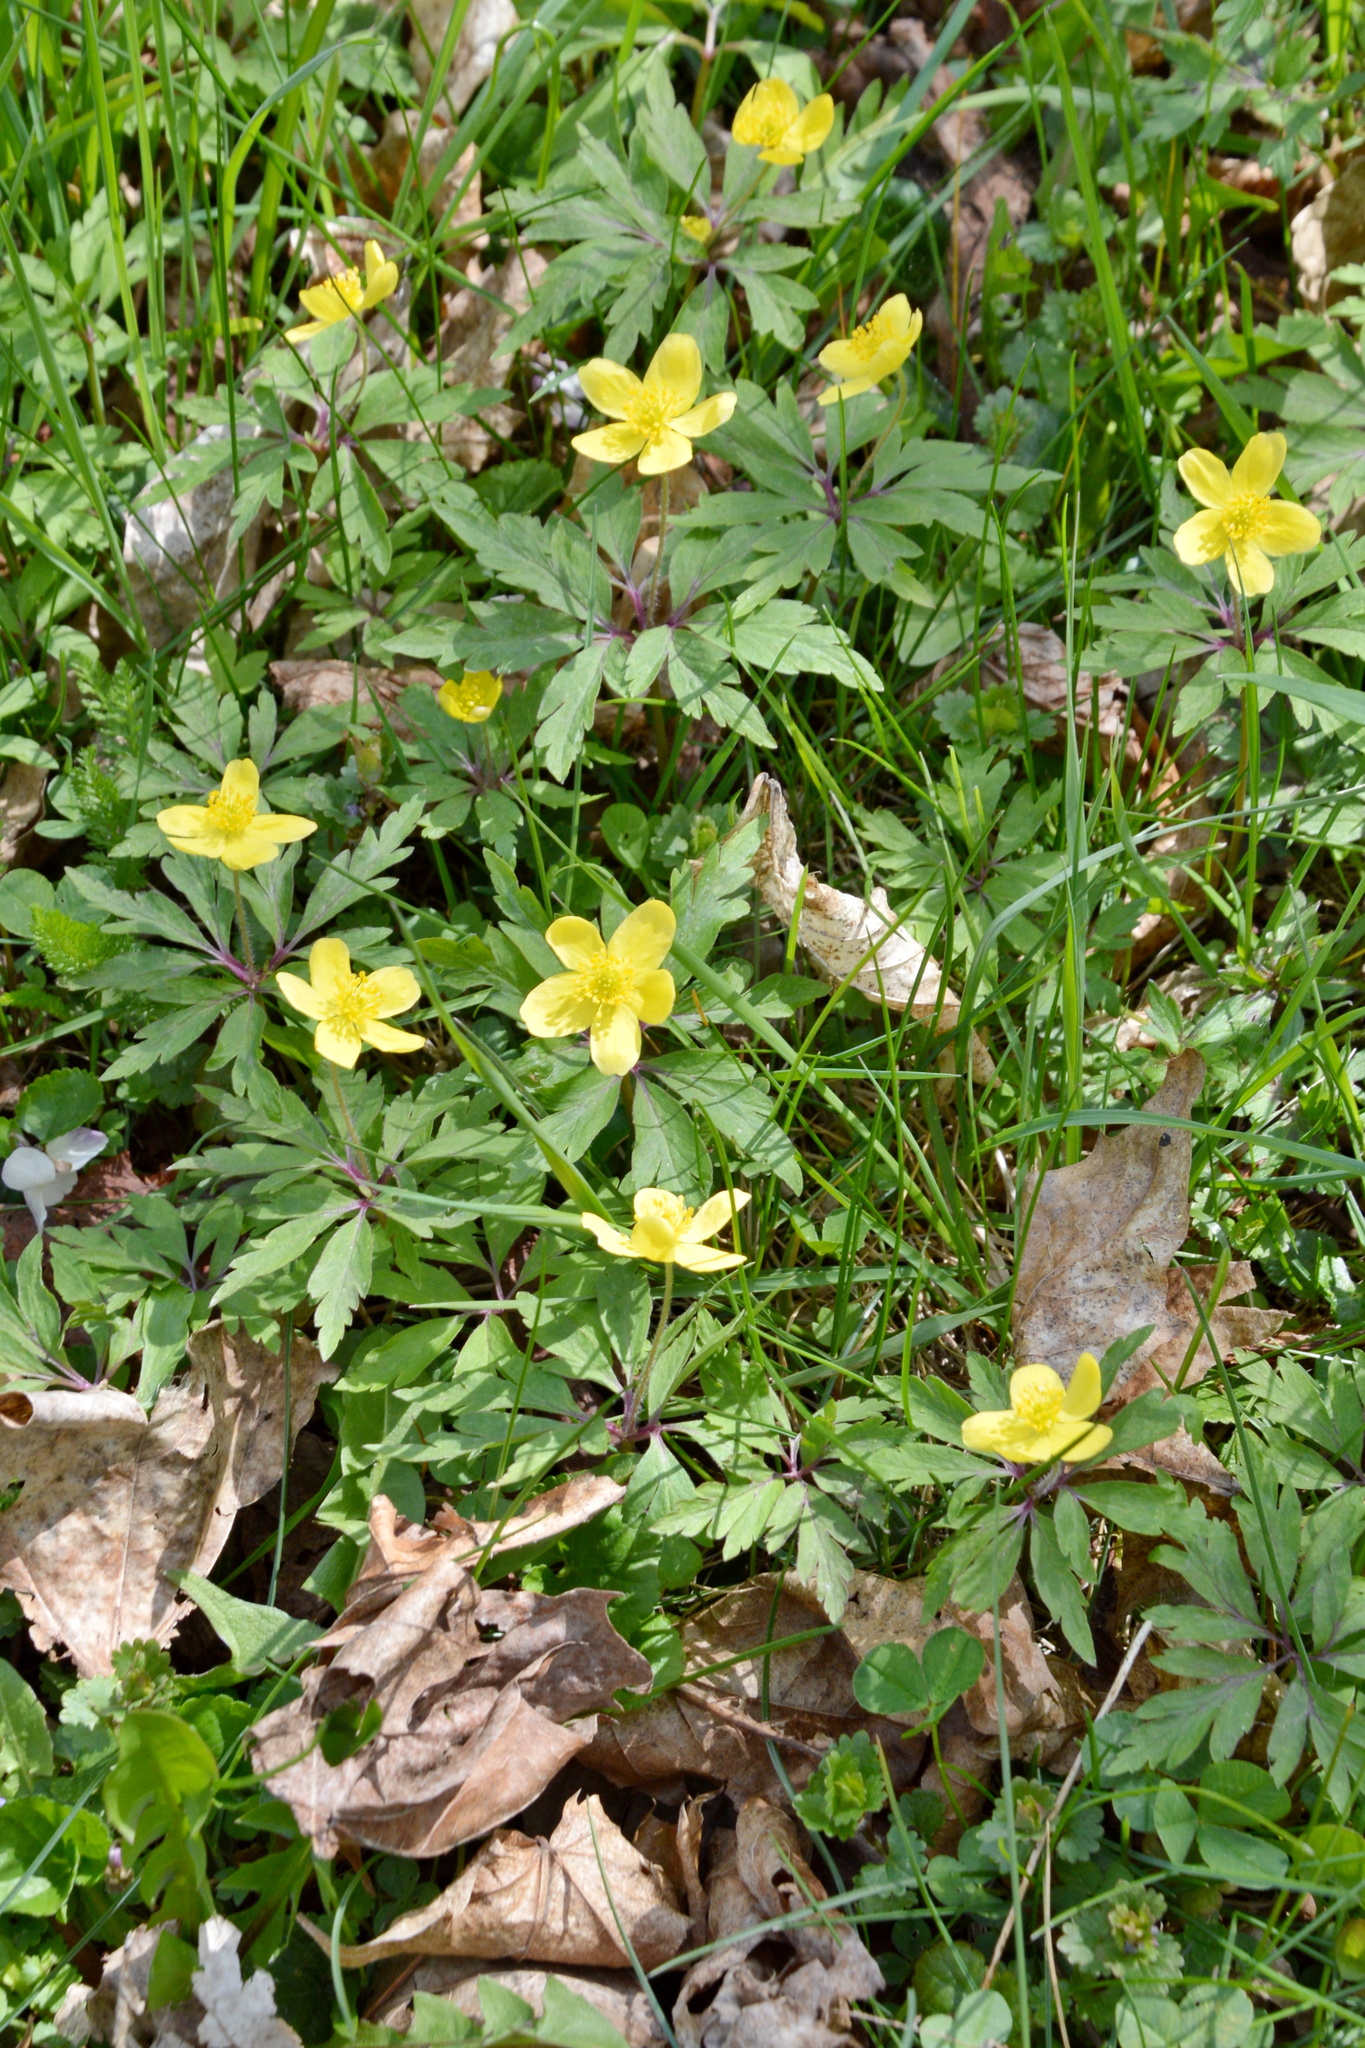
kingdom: Plantae
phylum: Tracheophyta
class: Magnoliopsida
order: Ranunculales
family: Ranunculaceae
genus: Anemone
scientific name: Anemone ranunculoides
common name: Yellow anemone
